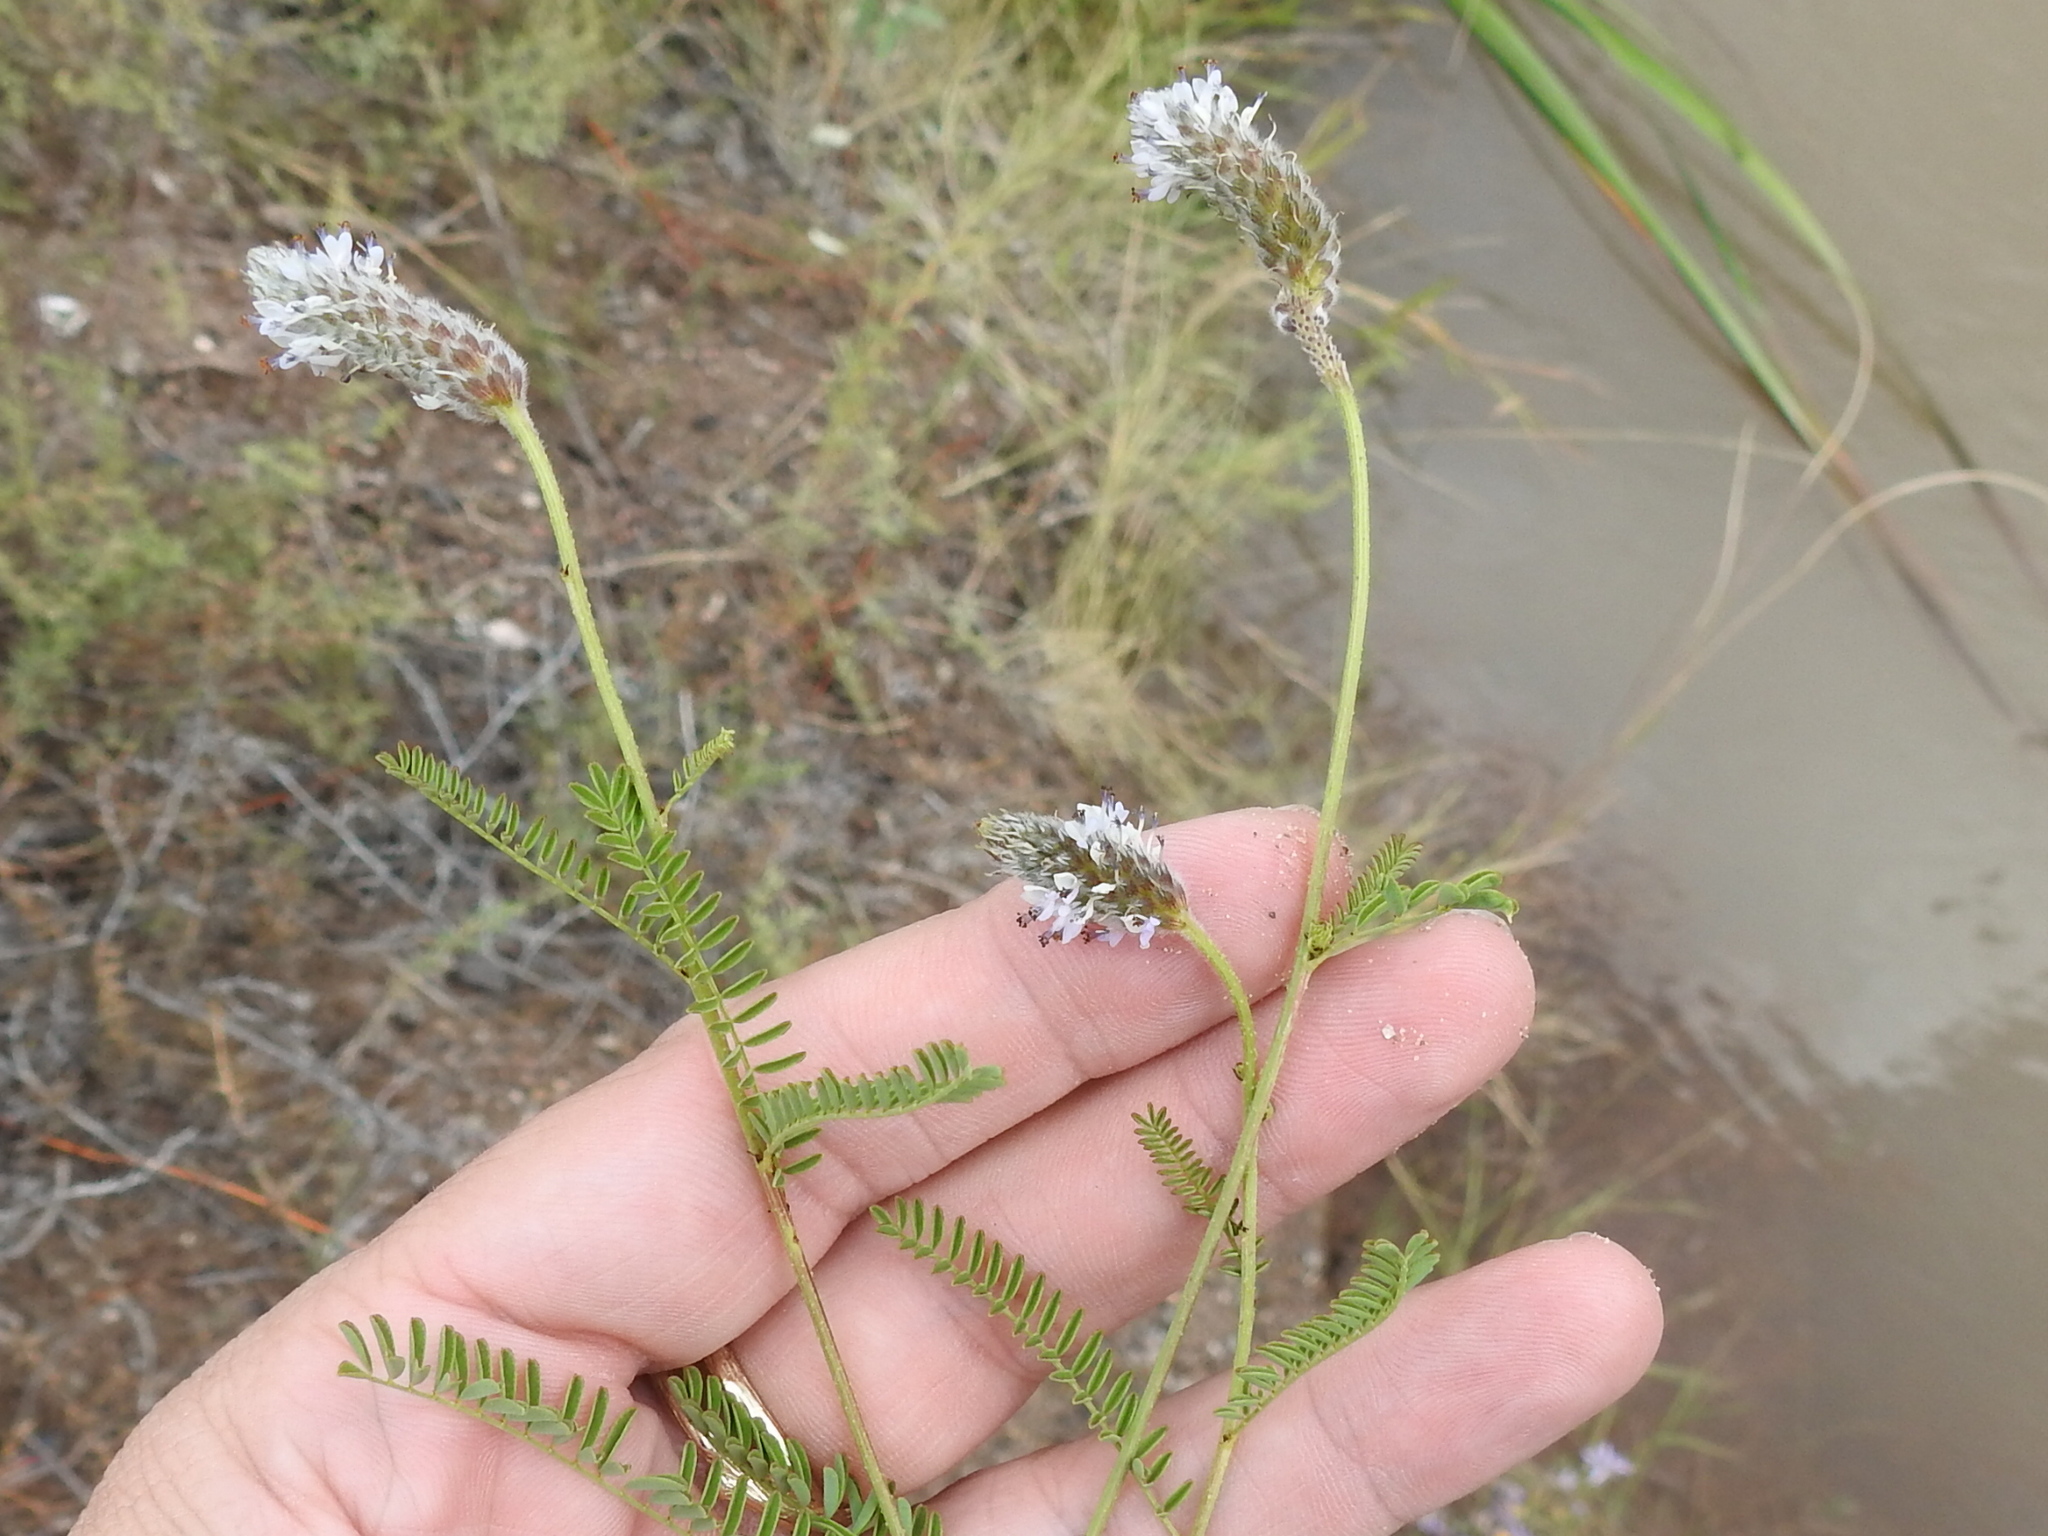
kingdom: Plantae
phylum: Tracheophyta
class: Magnoliopsida
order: Fabales
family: Fabaceae
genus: Dalea
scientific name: Dalea leporina
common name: Foxtail dalea
